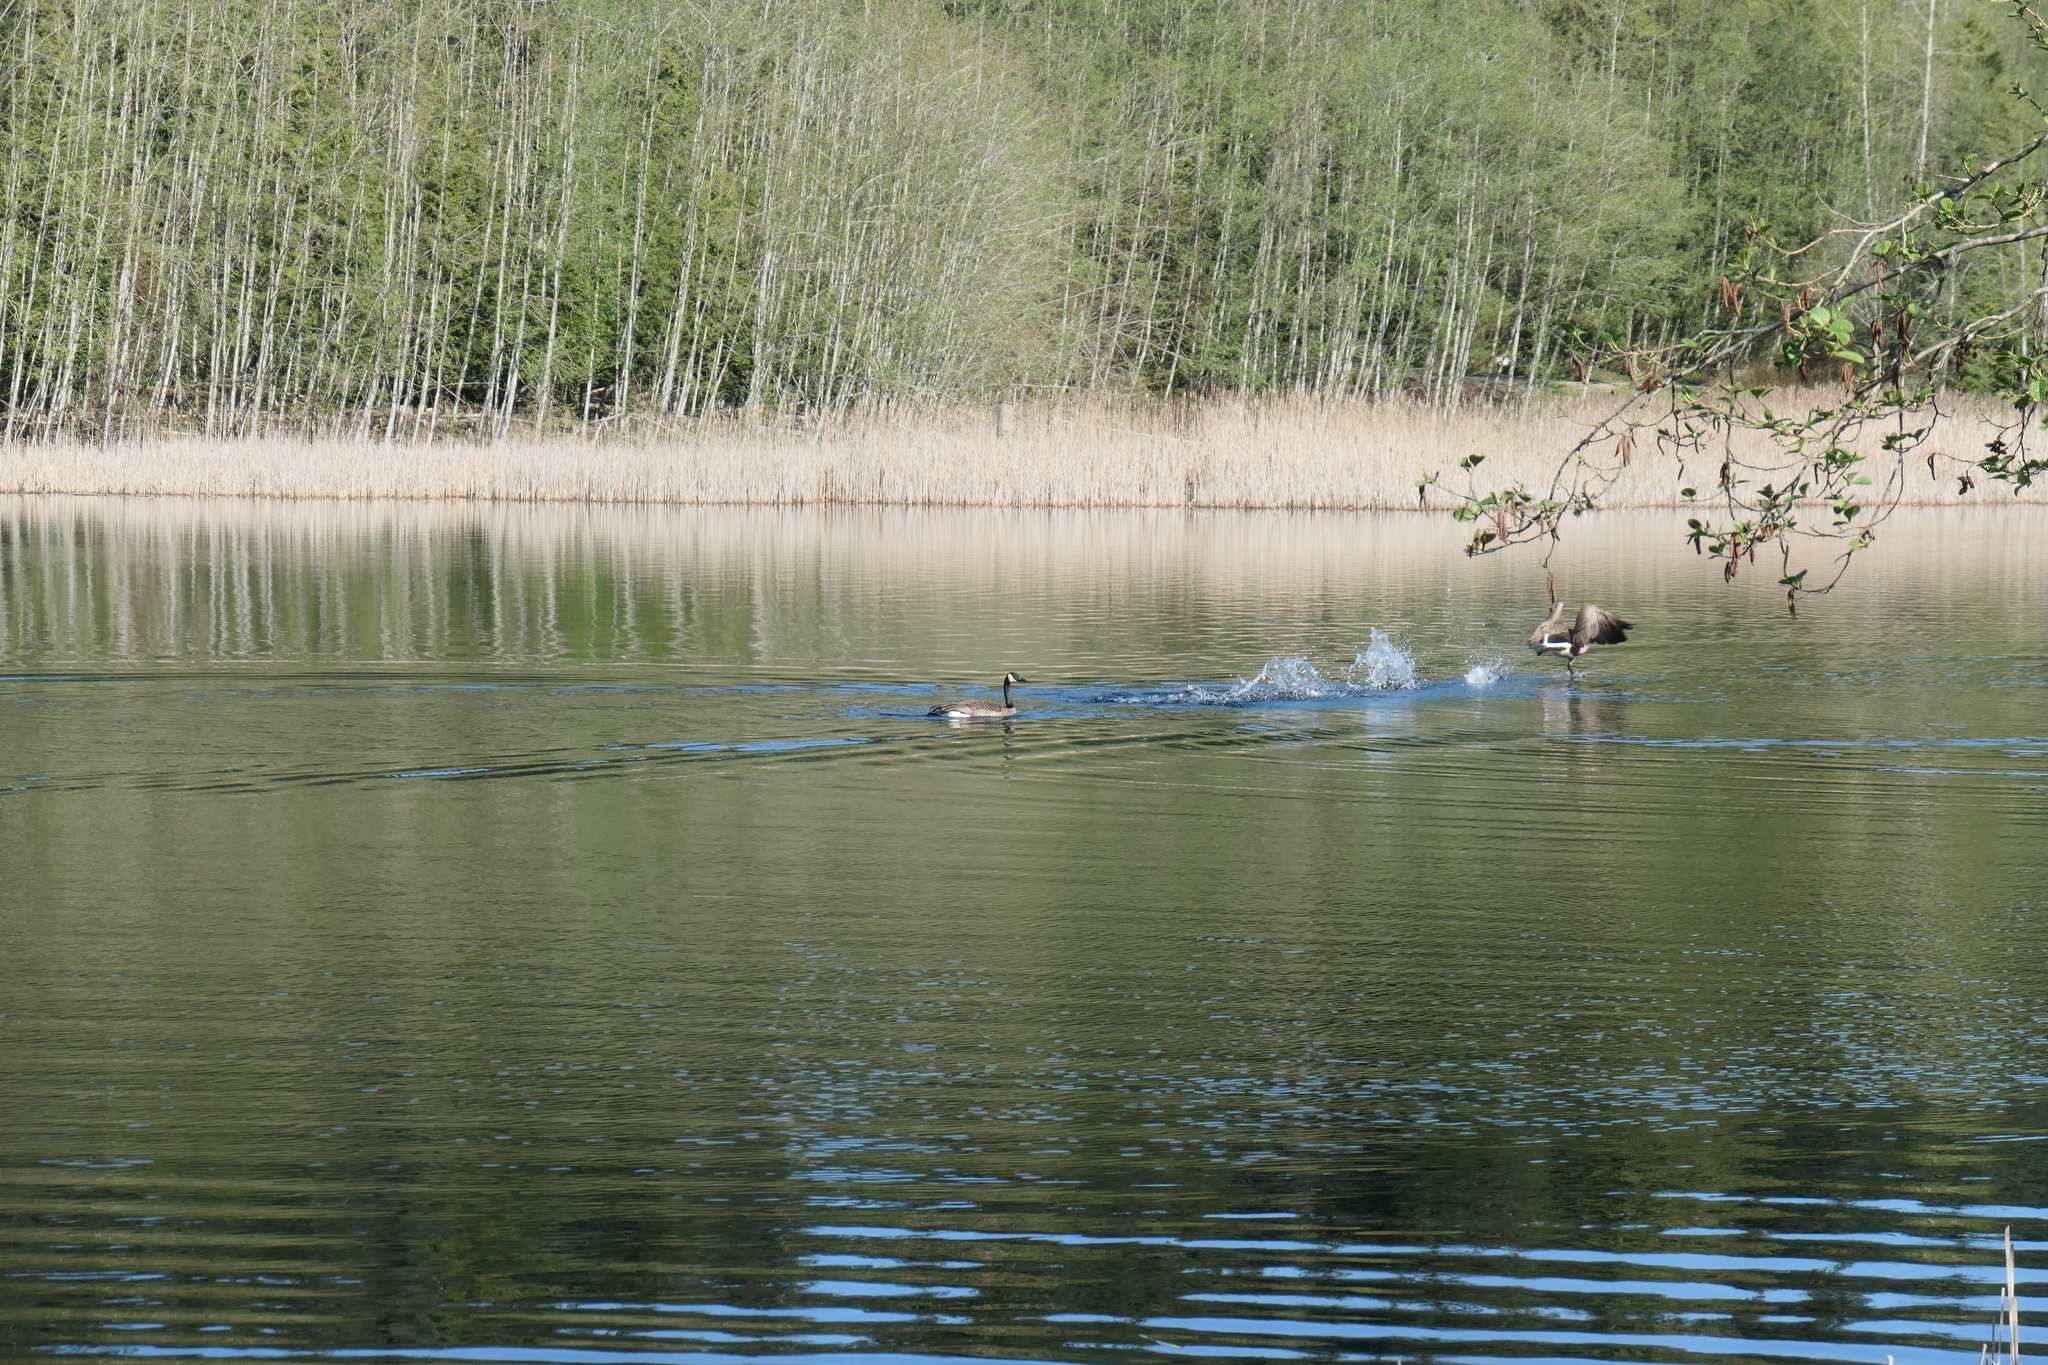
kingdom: Animalia
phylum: Chordata
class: Aves
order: Anseriformes
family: Anatidae
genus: Branta
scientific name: Branta canadensis
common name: Canada goose
